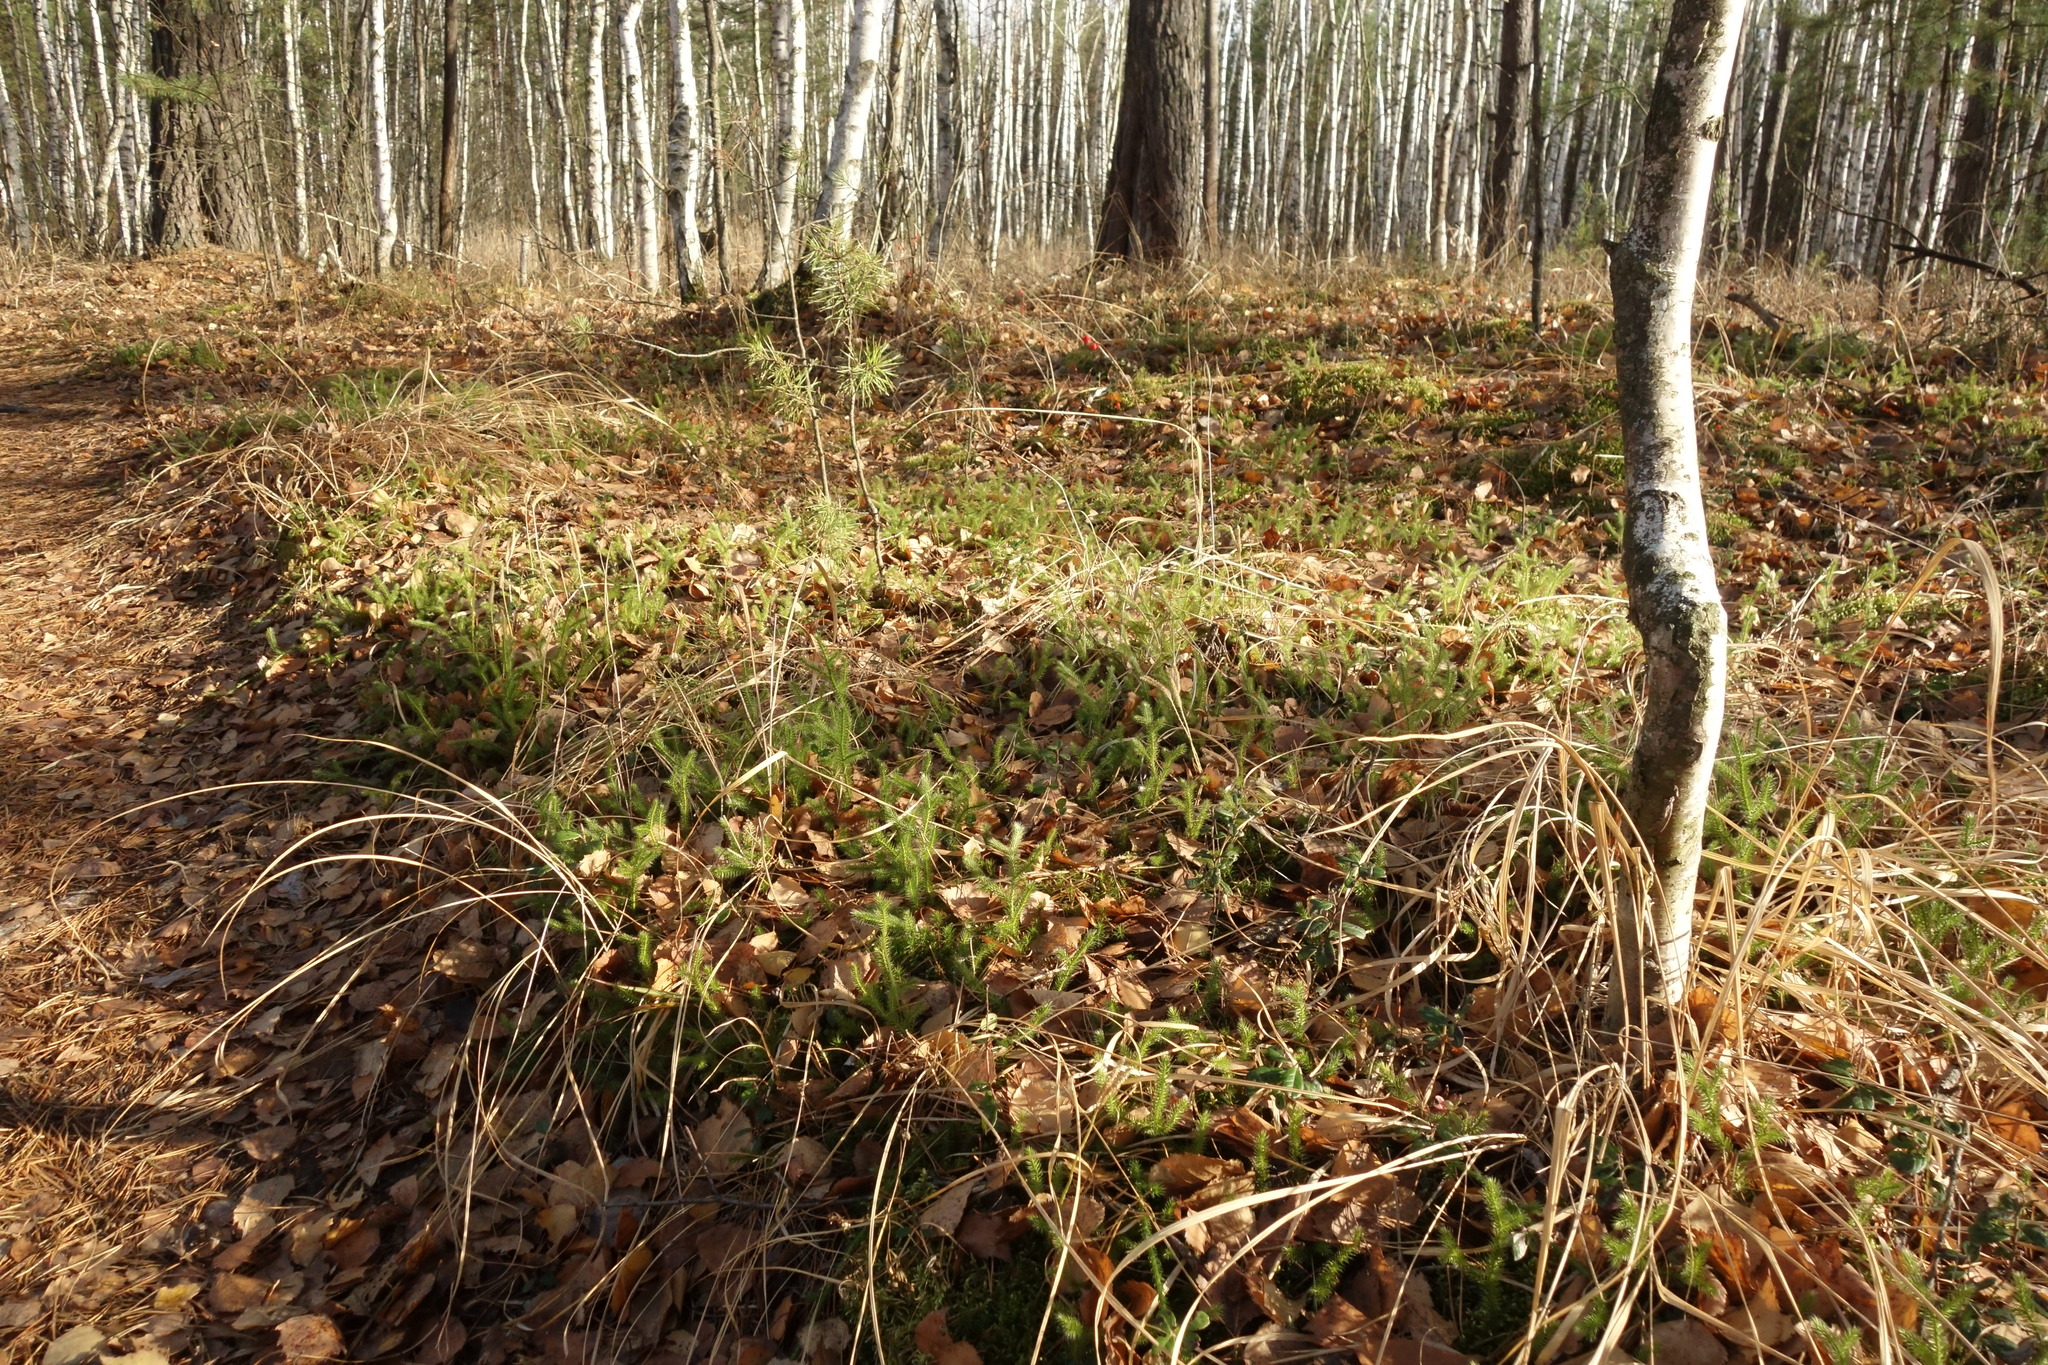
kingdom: Plantae
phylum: Tracheophyta
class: Lycopodiopsida
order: Lycopodiales
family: Lycopodiaceae
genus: Lycopodium
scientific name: Lycopodium clavatum
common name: Stag's-horn clubmoss
